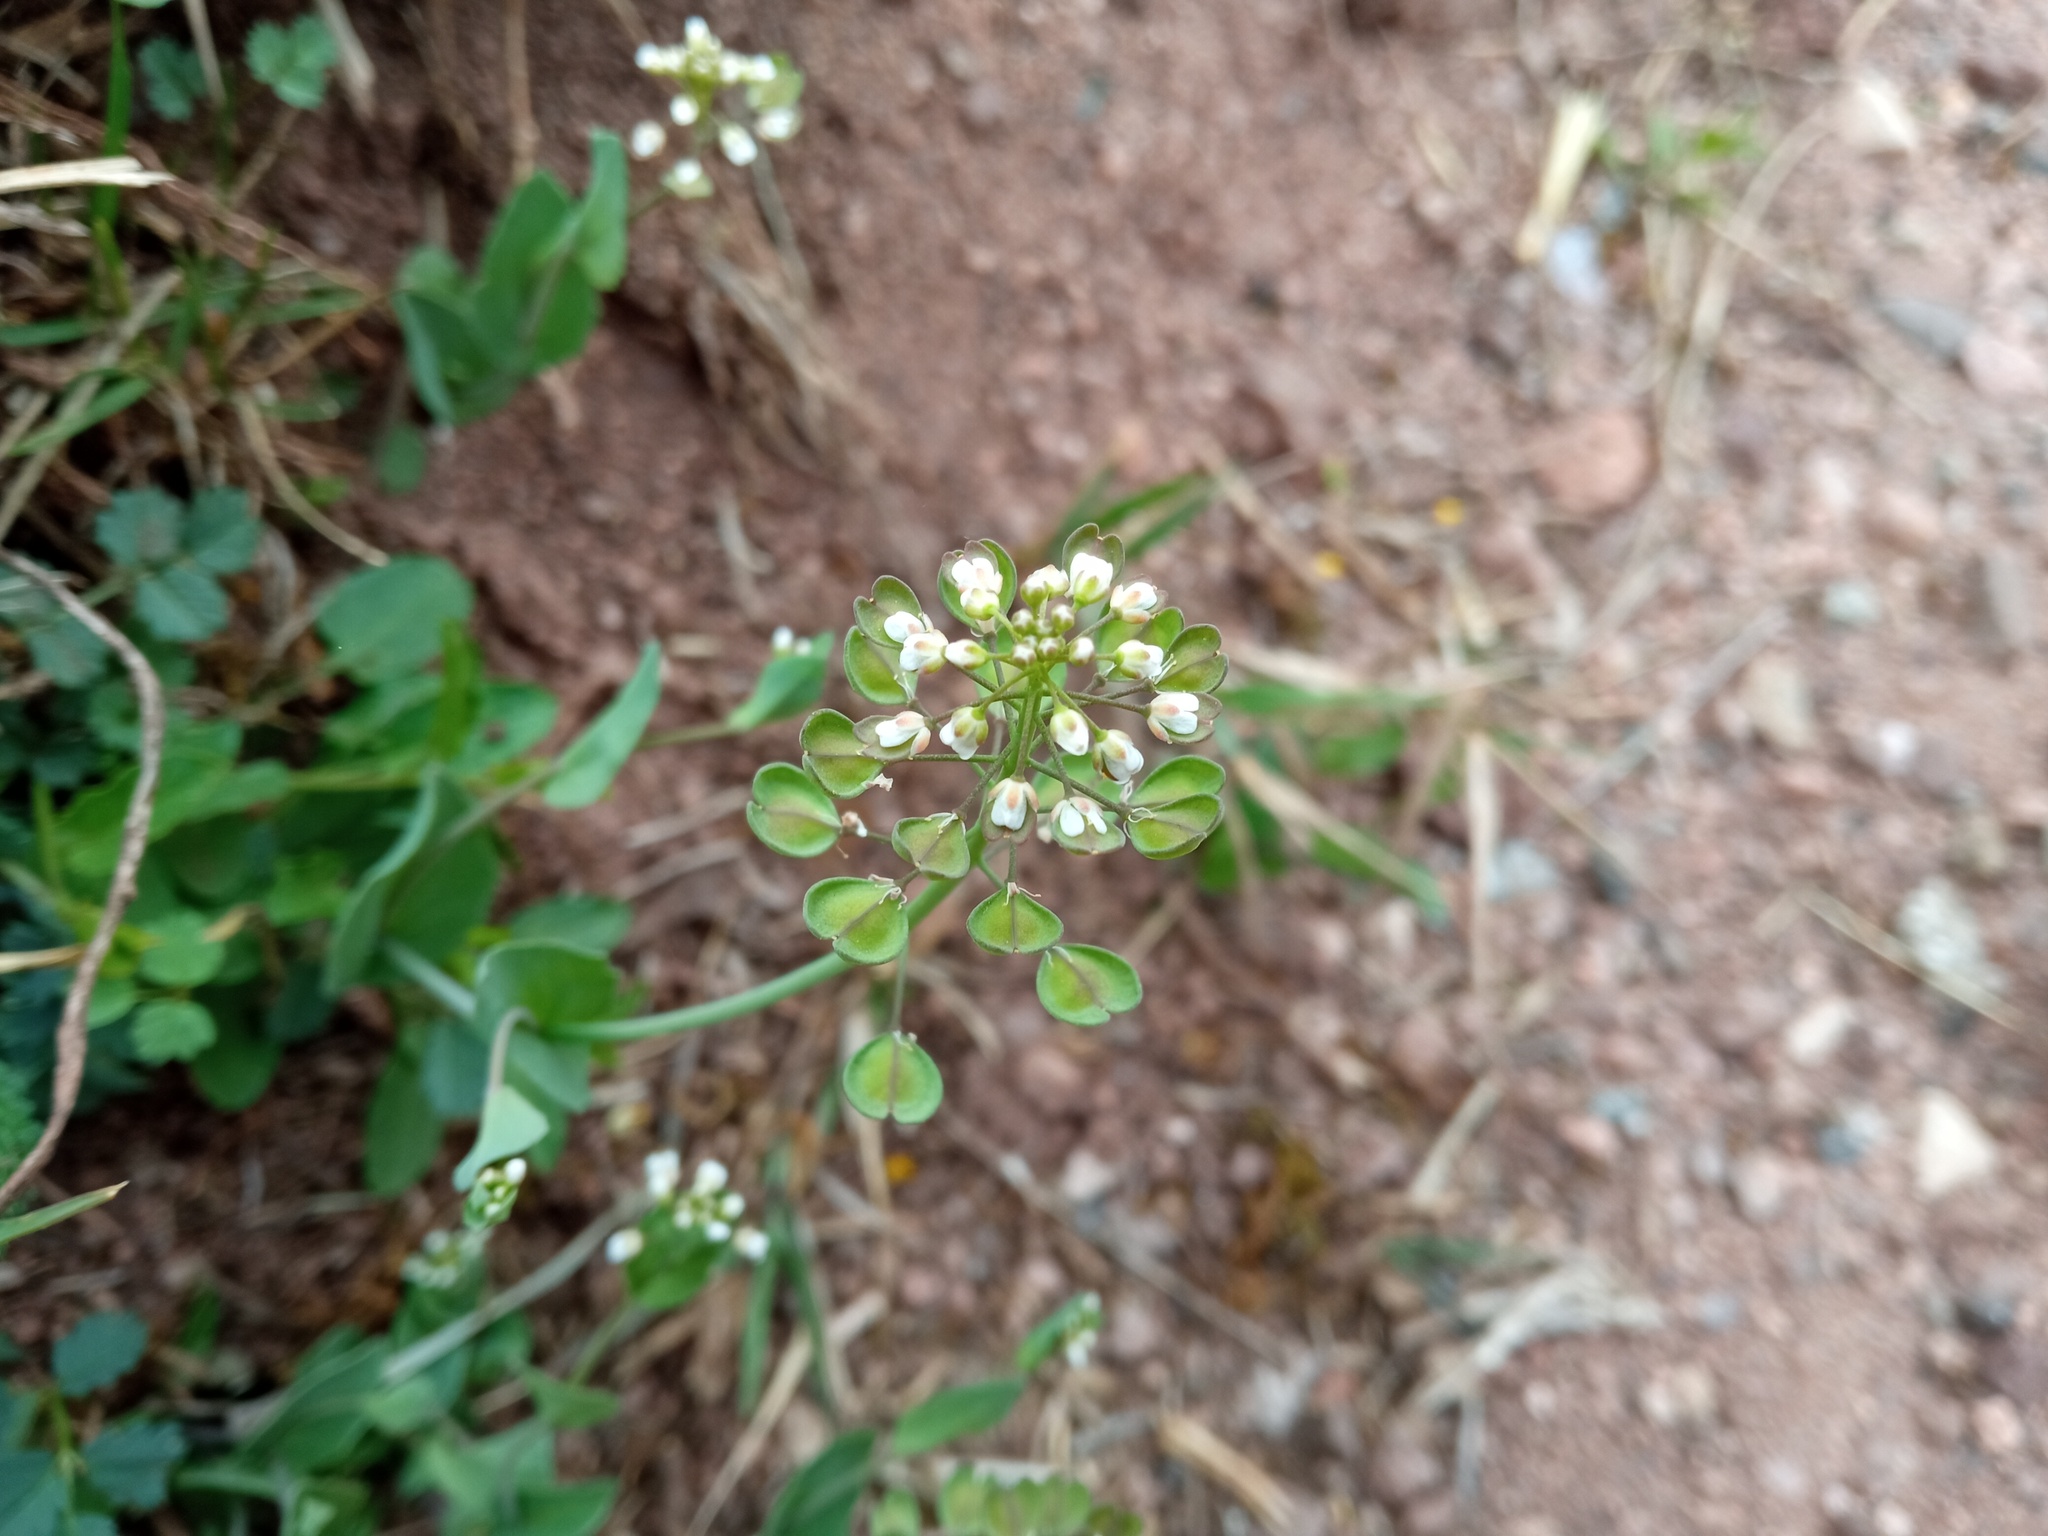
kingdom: Plantae
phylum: Tracheophyta
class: Magnoliopsida
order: Brassicales
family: Brassicaceae
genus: Noccaea
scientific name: Noccaea perfoliata
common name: Perfoliate pennycress
